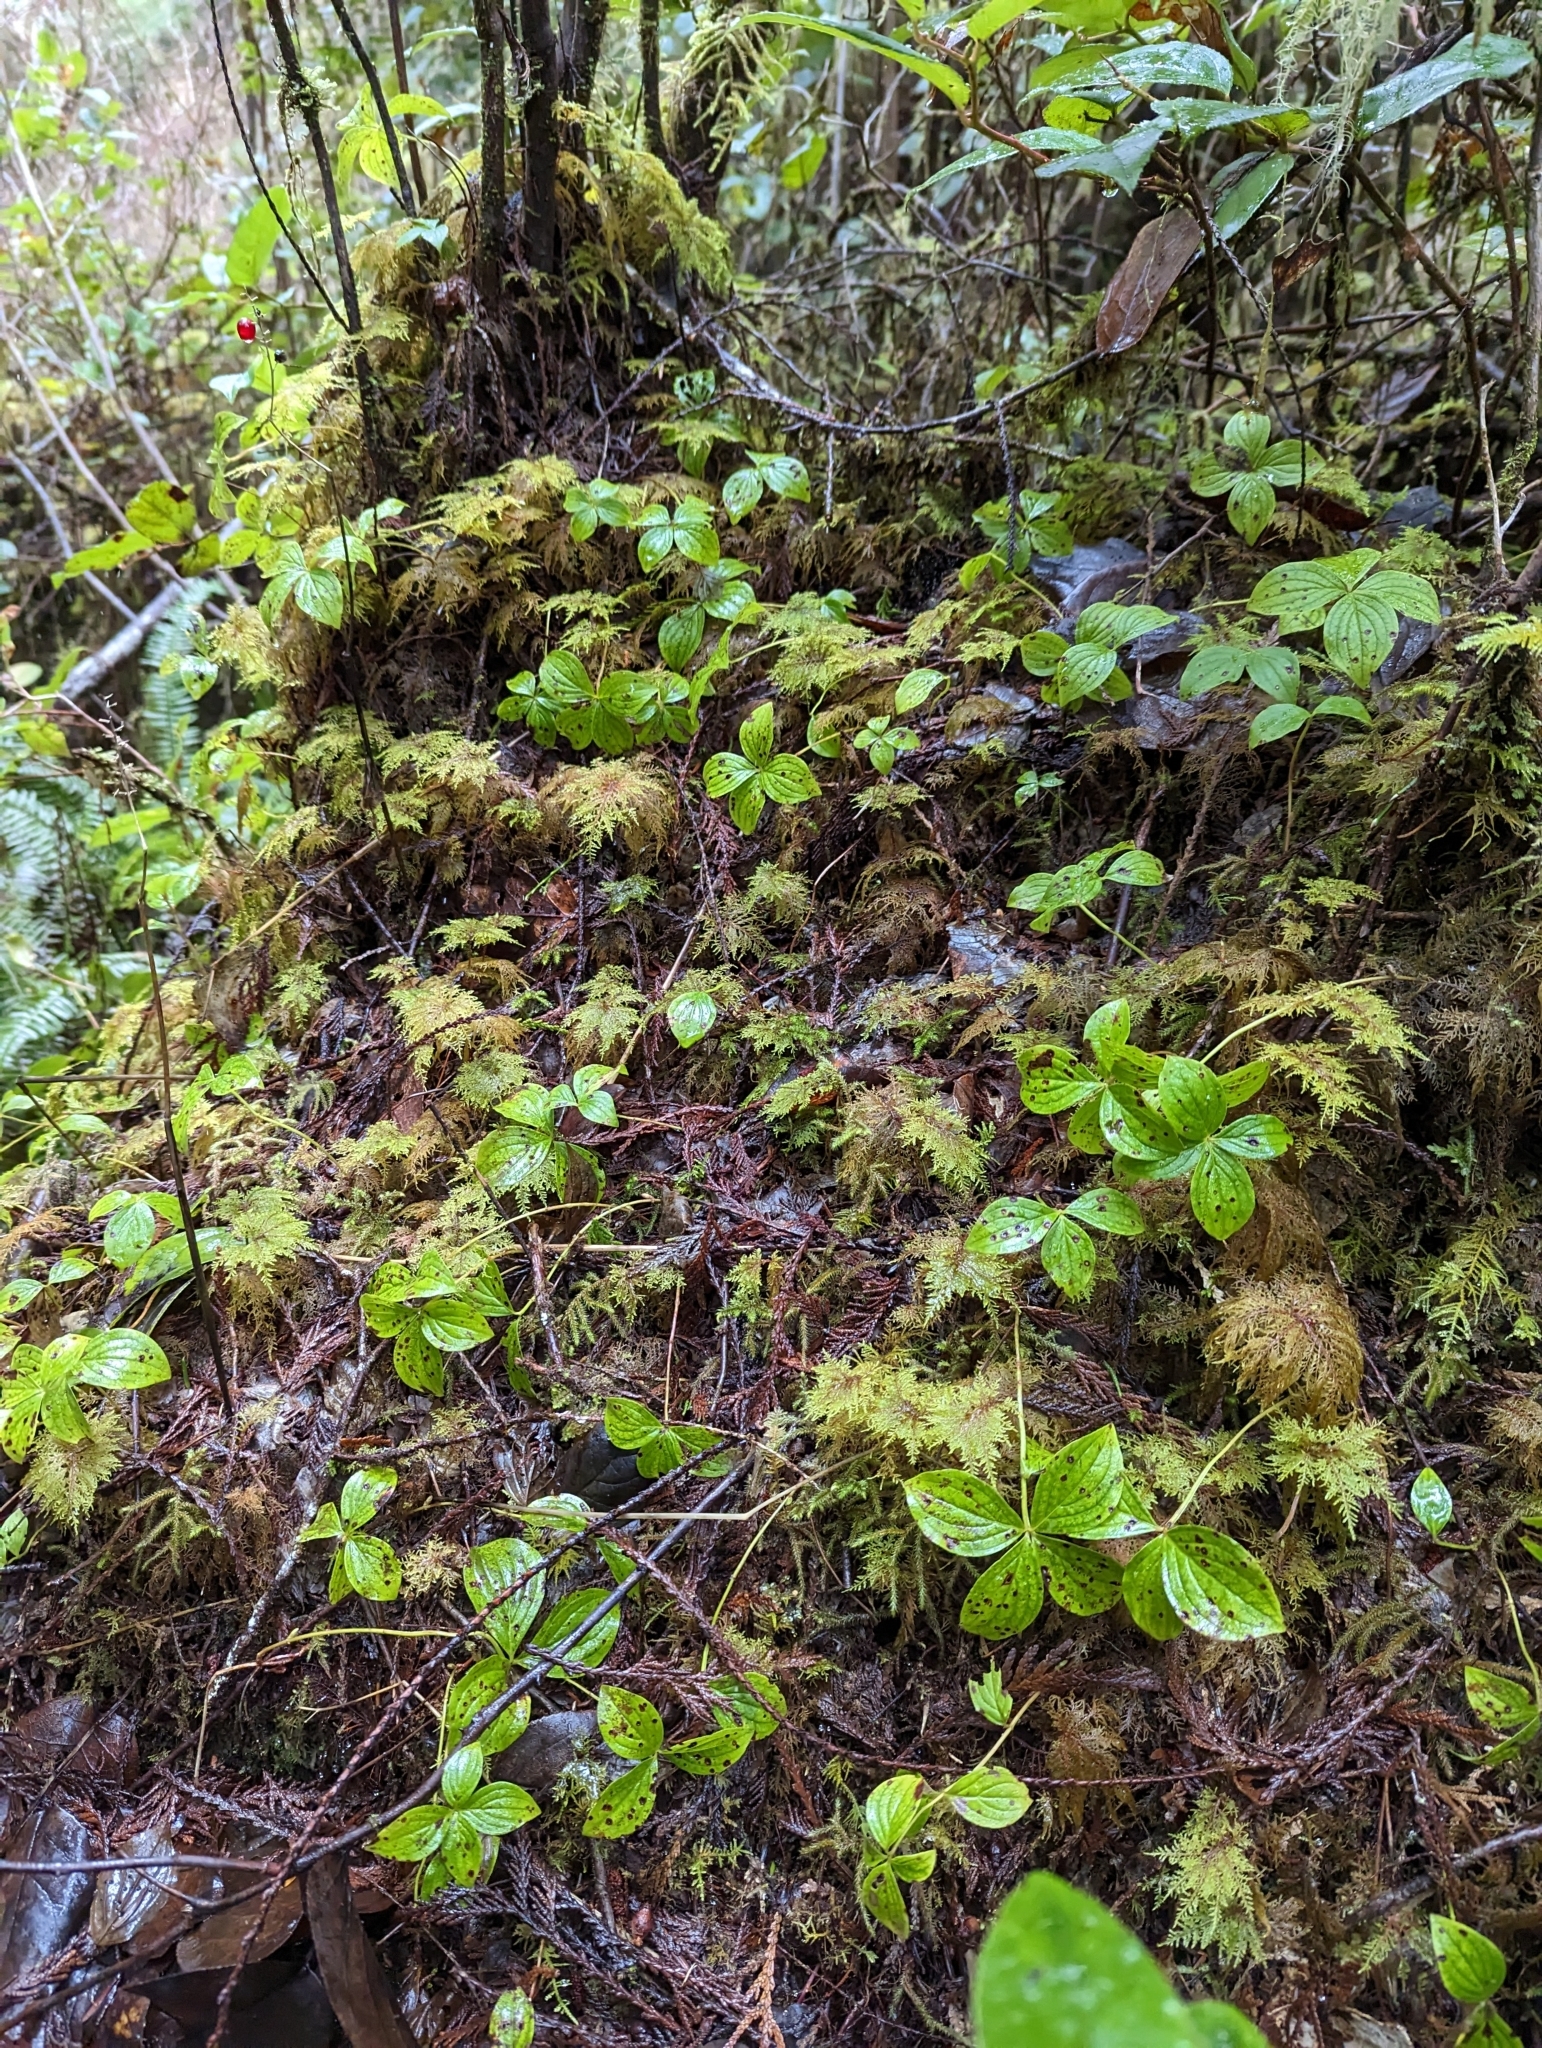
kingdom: Plantae
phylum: Tracheophyta
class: Magnoliopsida
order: Cornales
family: Cornaceae
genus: Cornus
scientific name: Cornus unalaschkensis
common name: Alaska bunchberry
